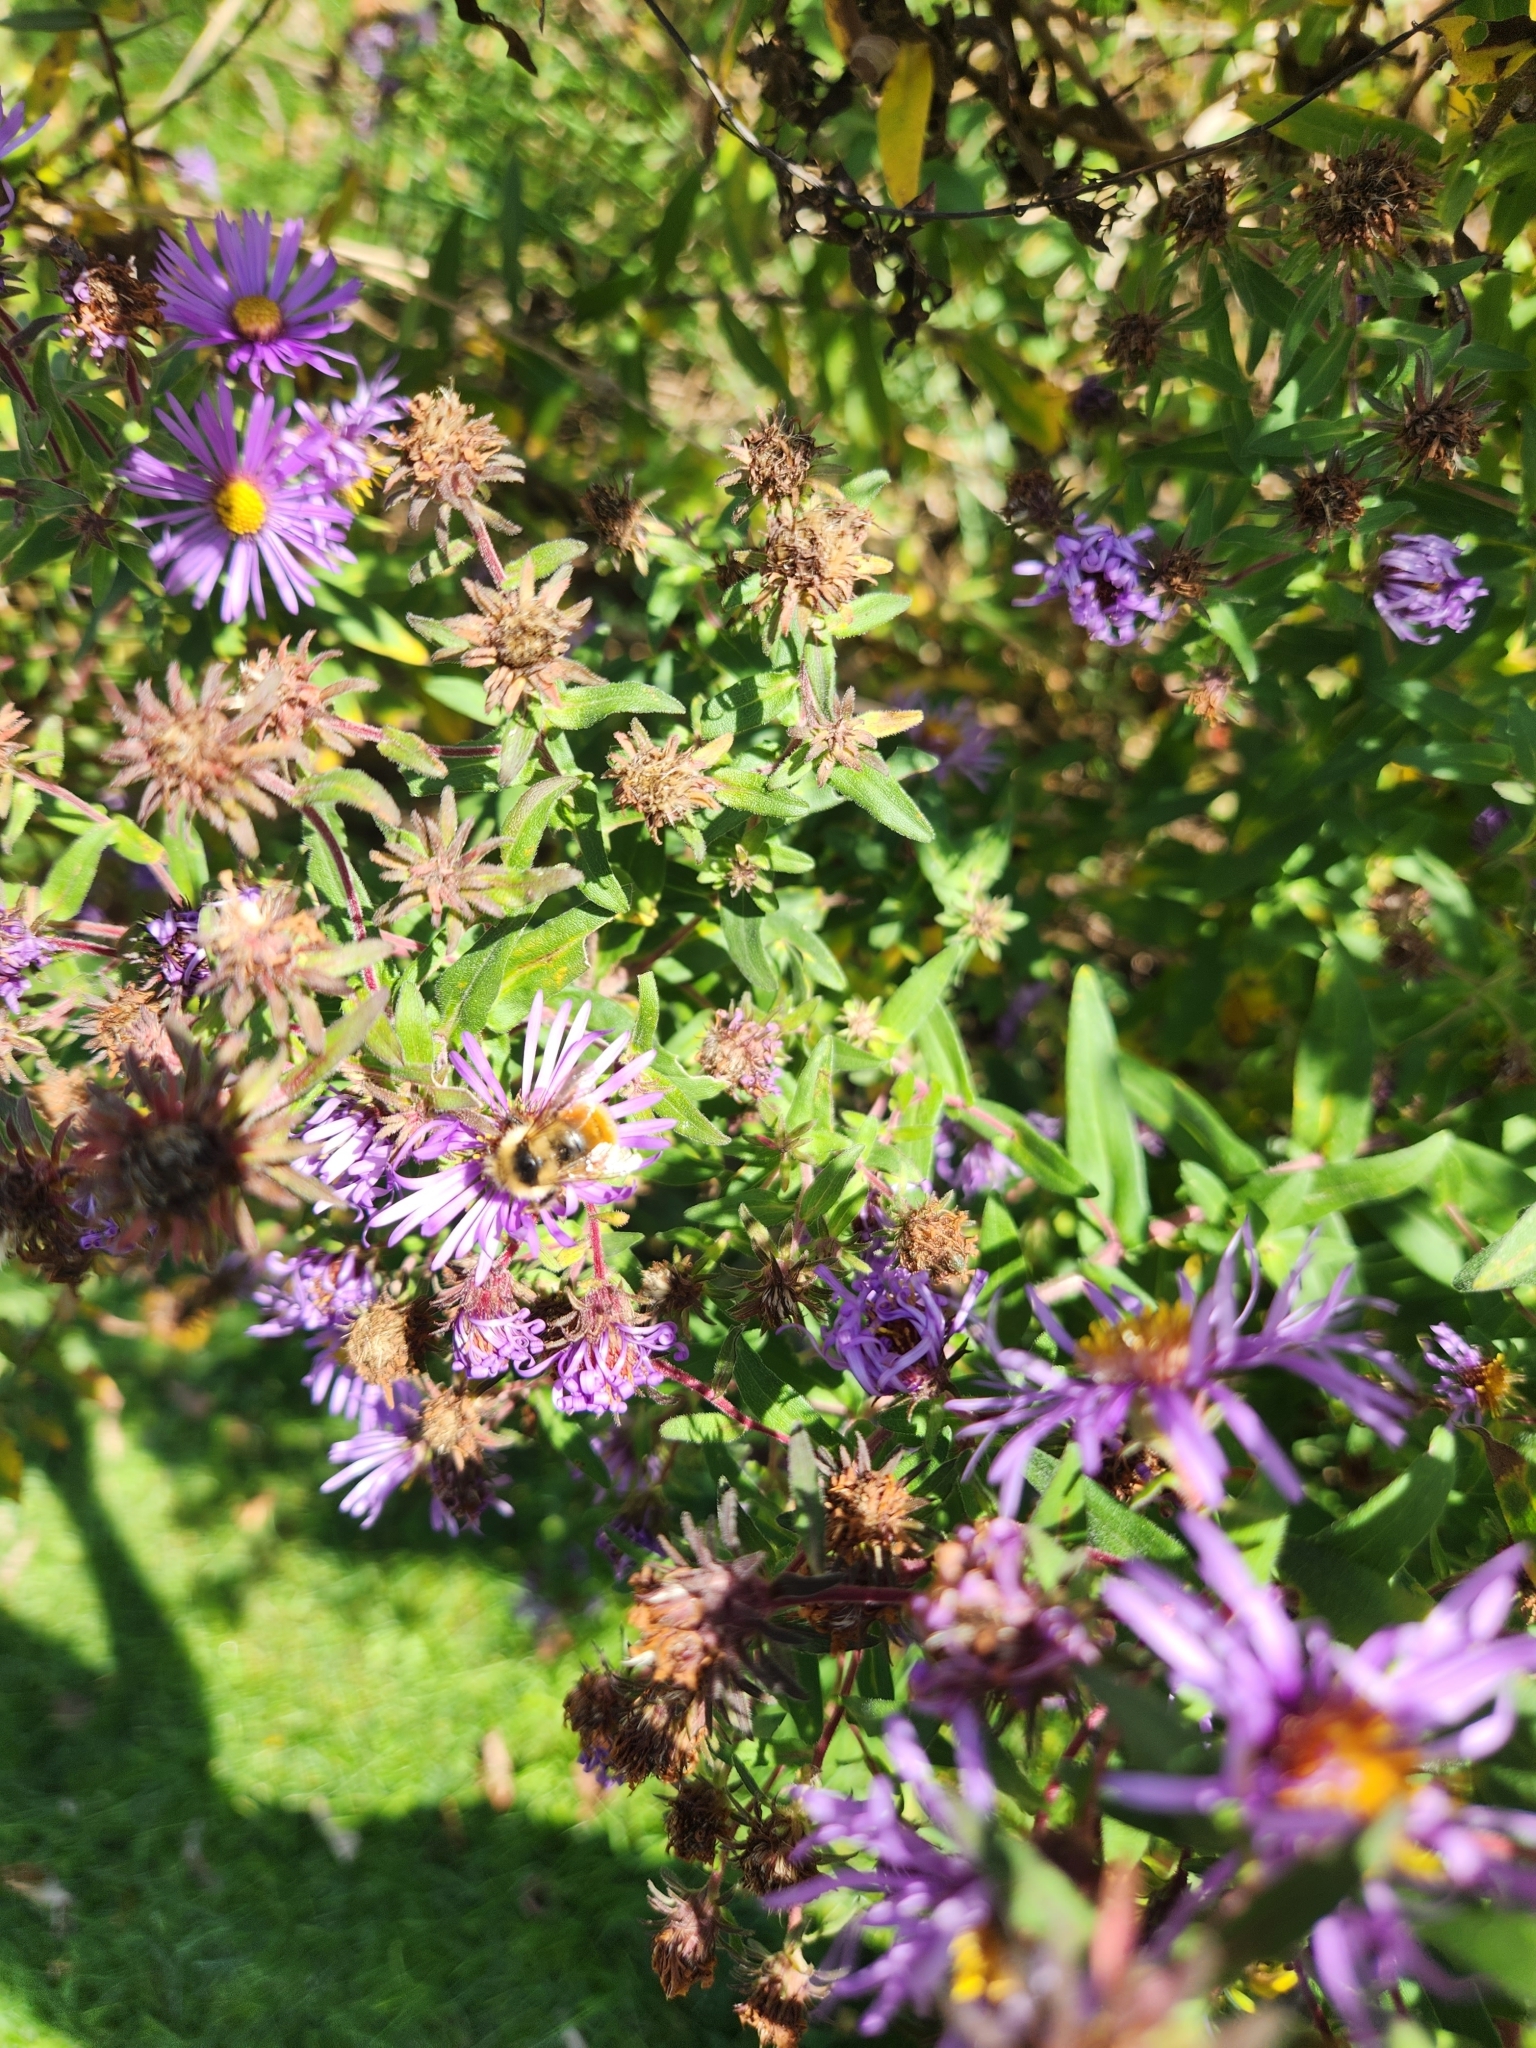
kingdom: Animalia
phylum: Arthropoda
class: Insecta
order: Hymenoptera
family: Apidae
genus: Bombus
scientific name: Bombus ternarius
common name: Tri-colored bumble bee
